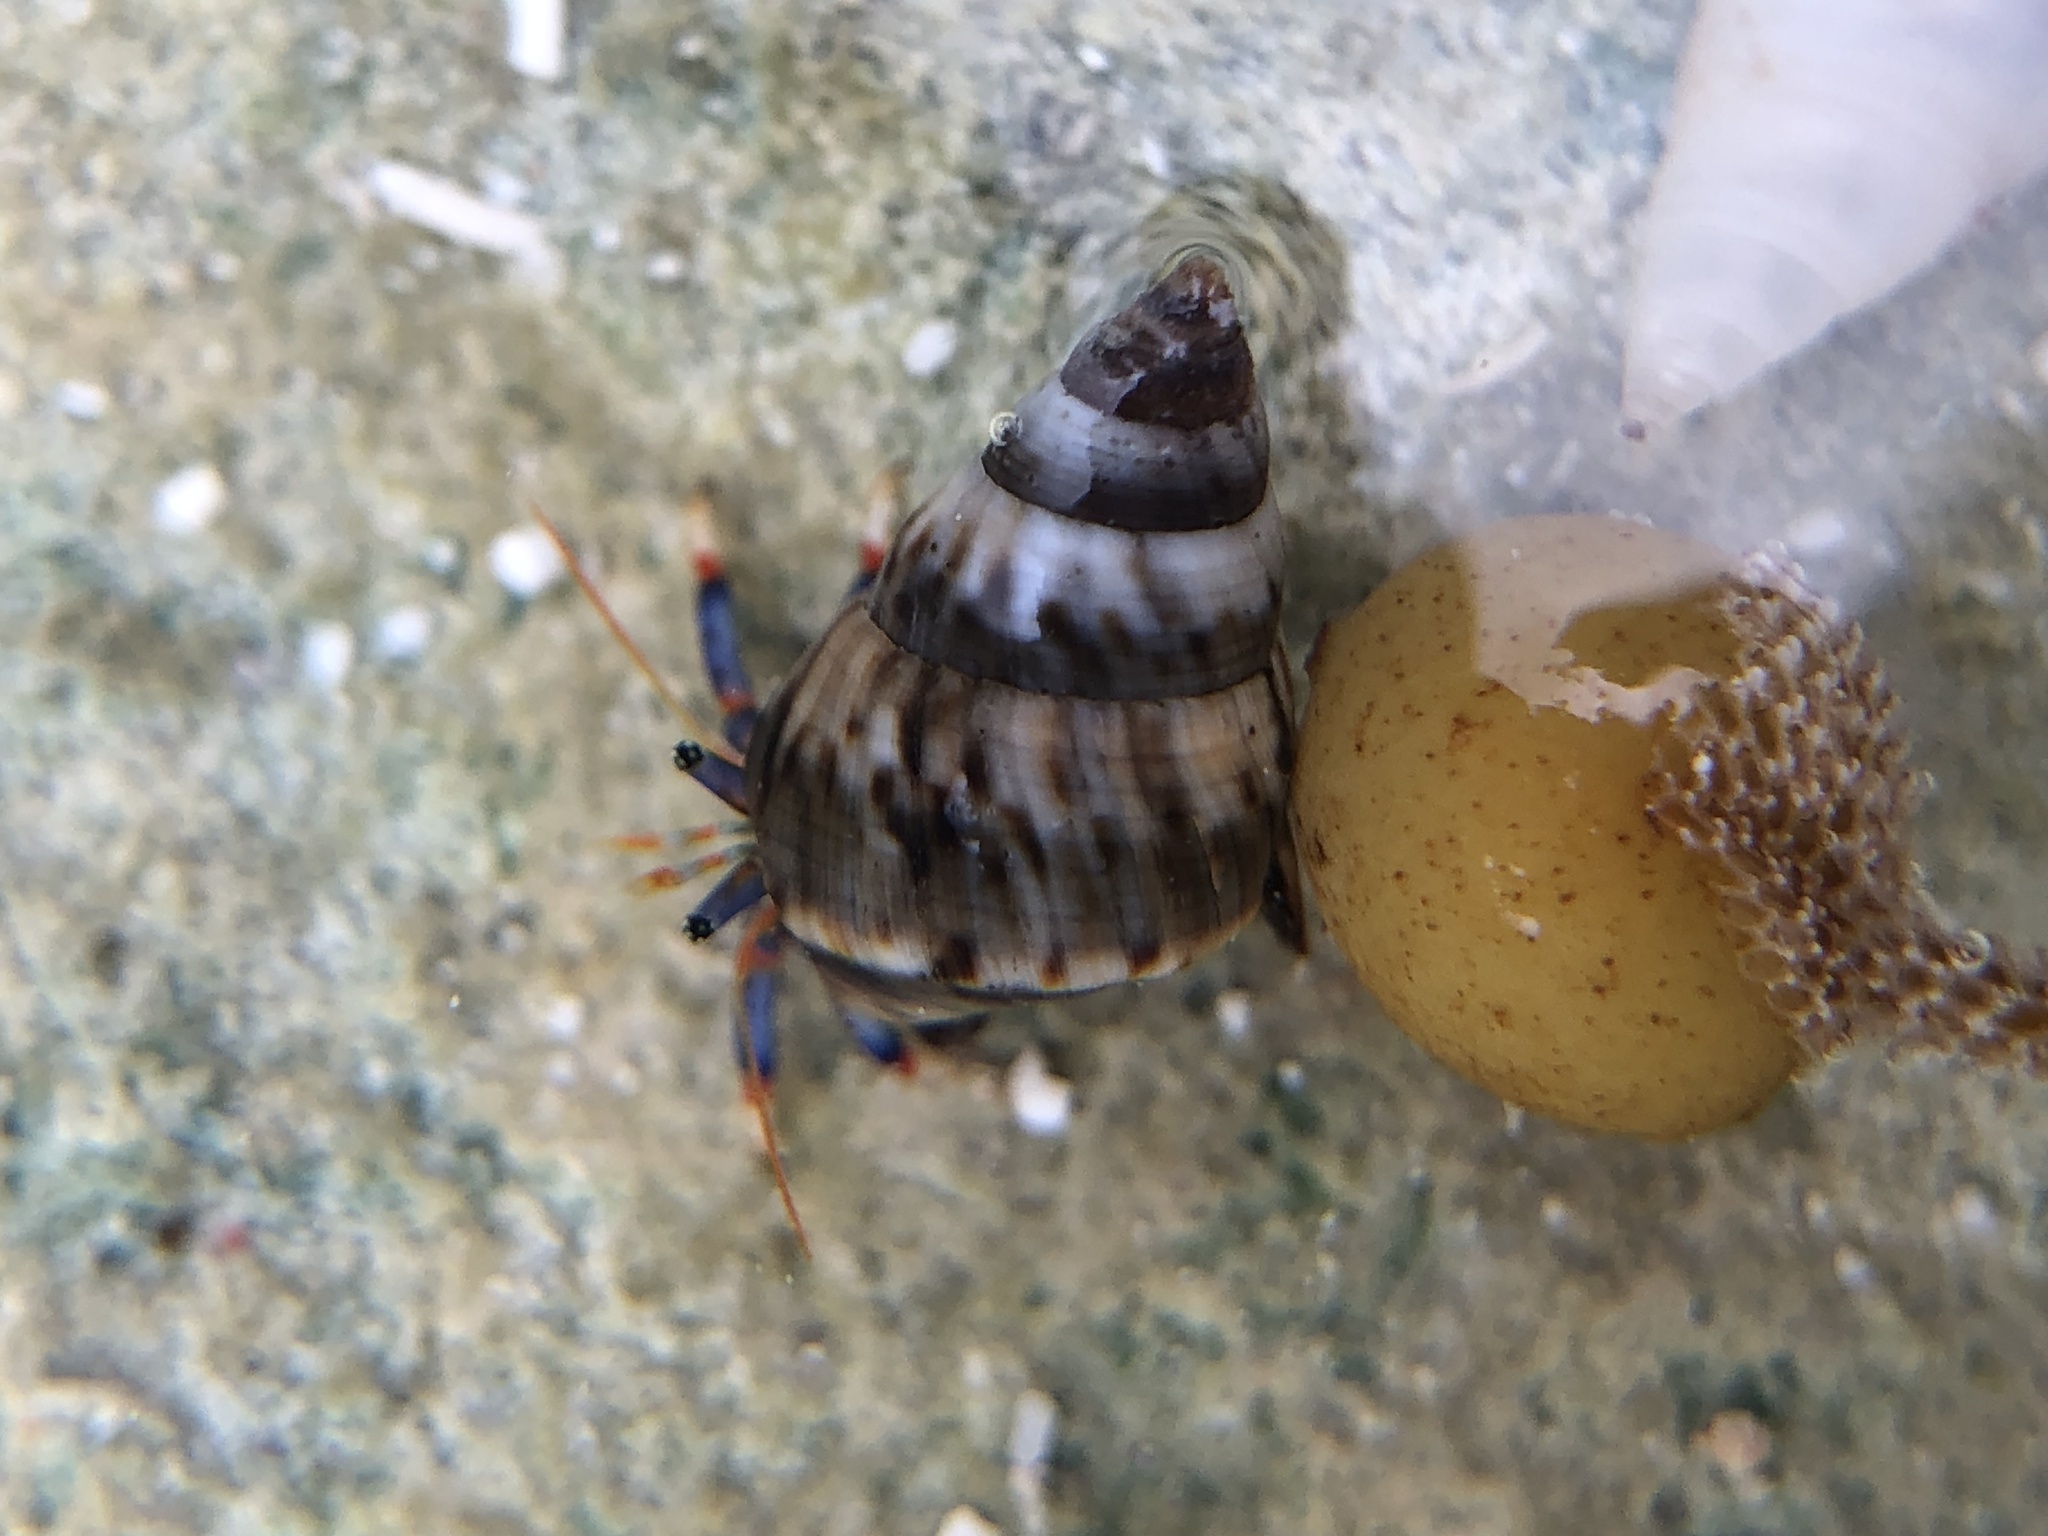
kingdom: Animalia
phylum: Arthropoda
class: Malacostraca
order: Decapoda
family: Diogenidae
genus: Clibanarius
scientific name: Clibanarius tricolor
